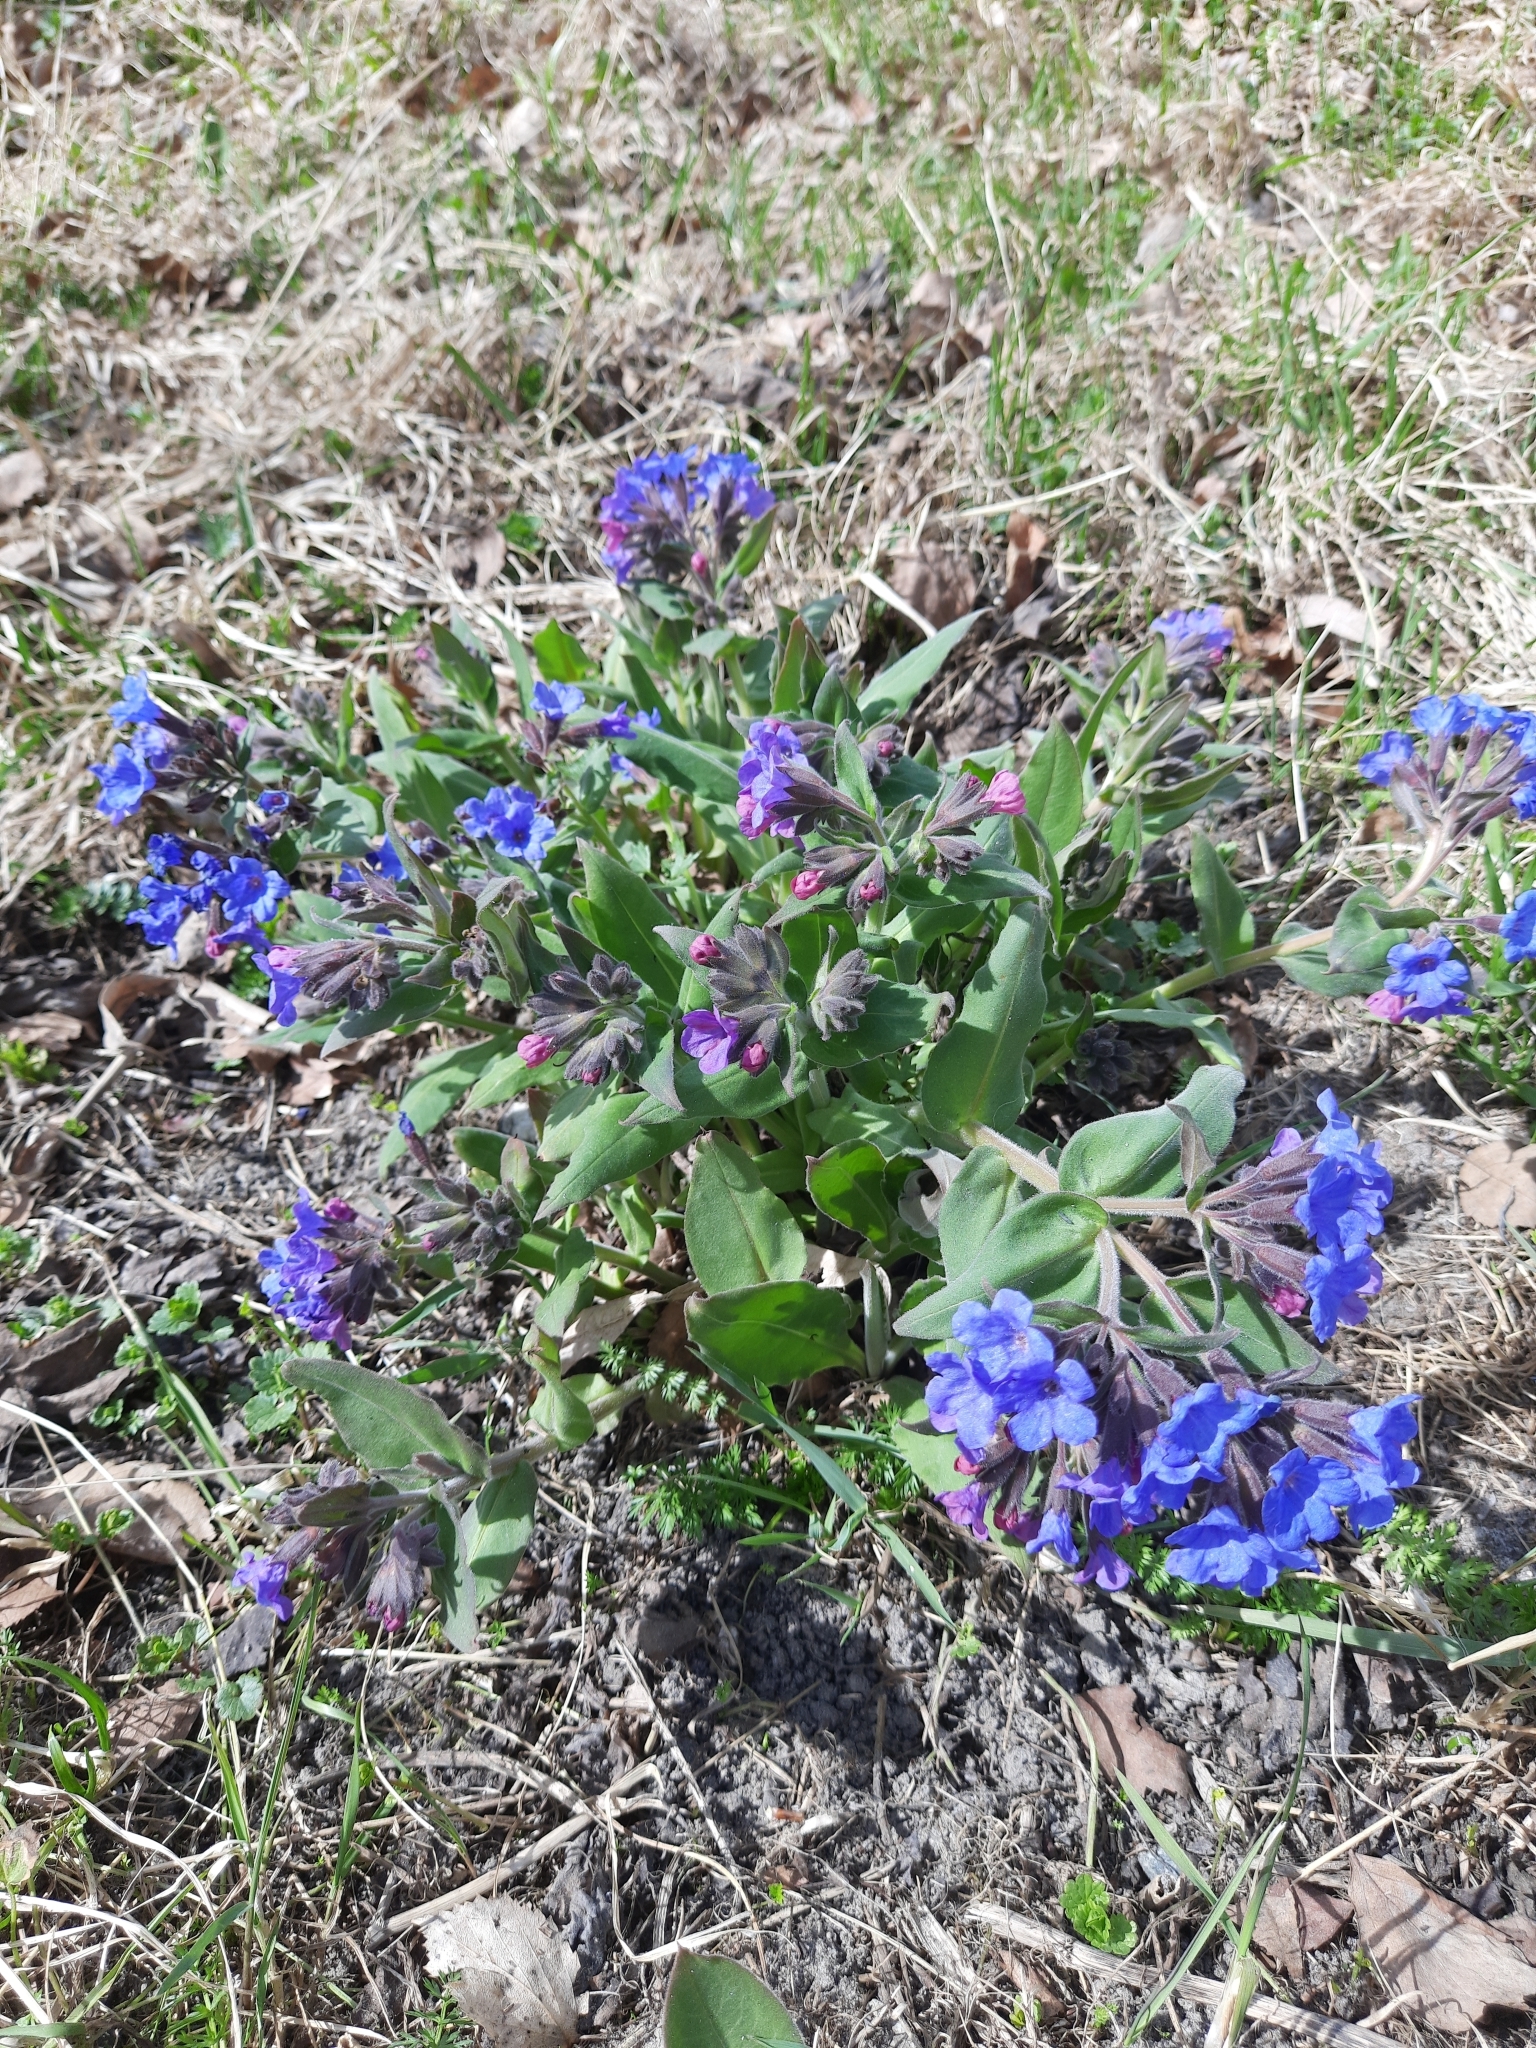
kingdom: Plantae
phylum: Tracheophyta
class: Magnoliopsida
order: Boraginales
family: Boraginaceae
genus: Pulmonaria
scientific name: Pulmonaria mollis
